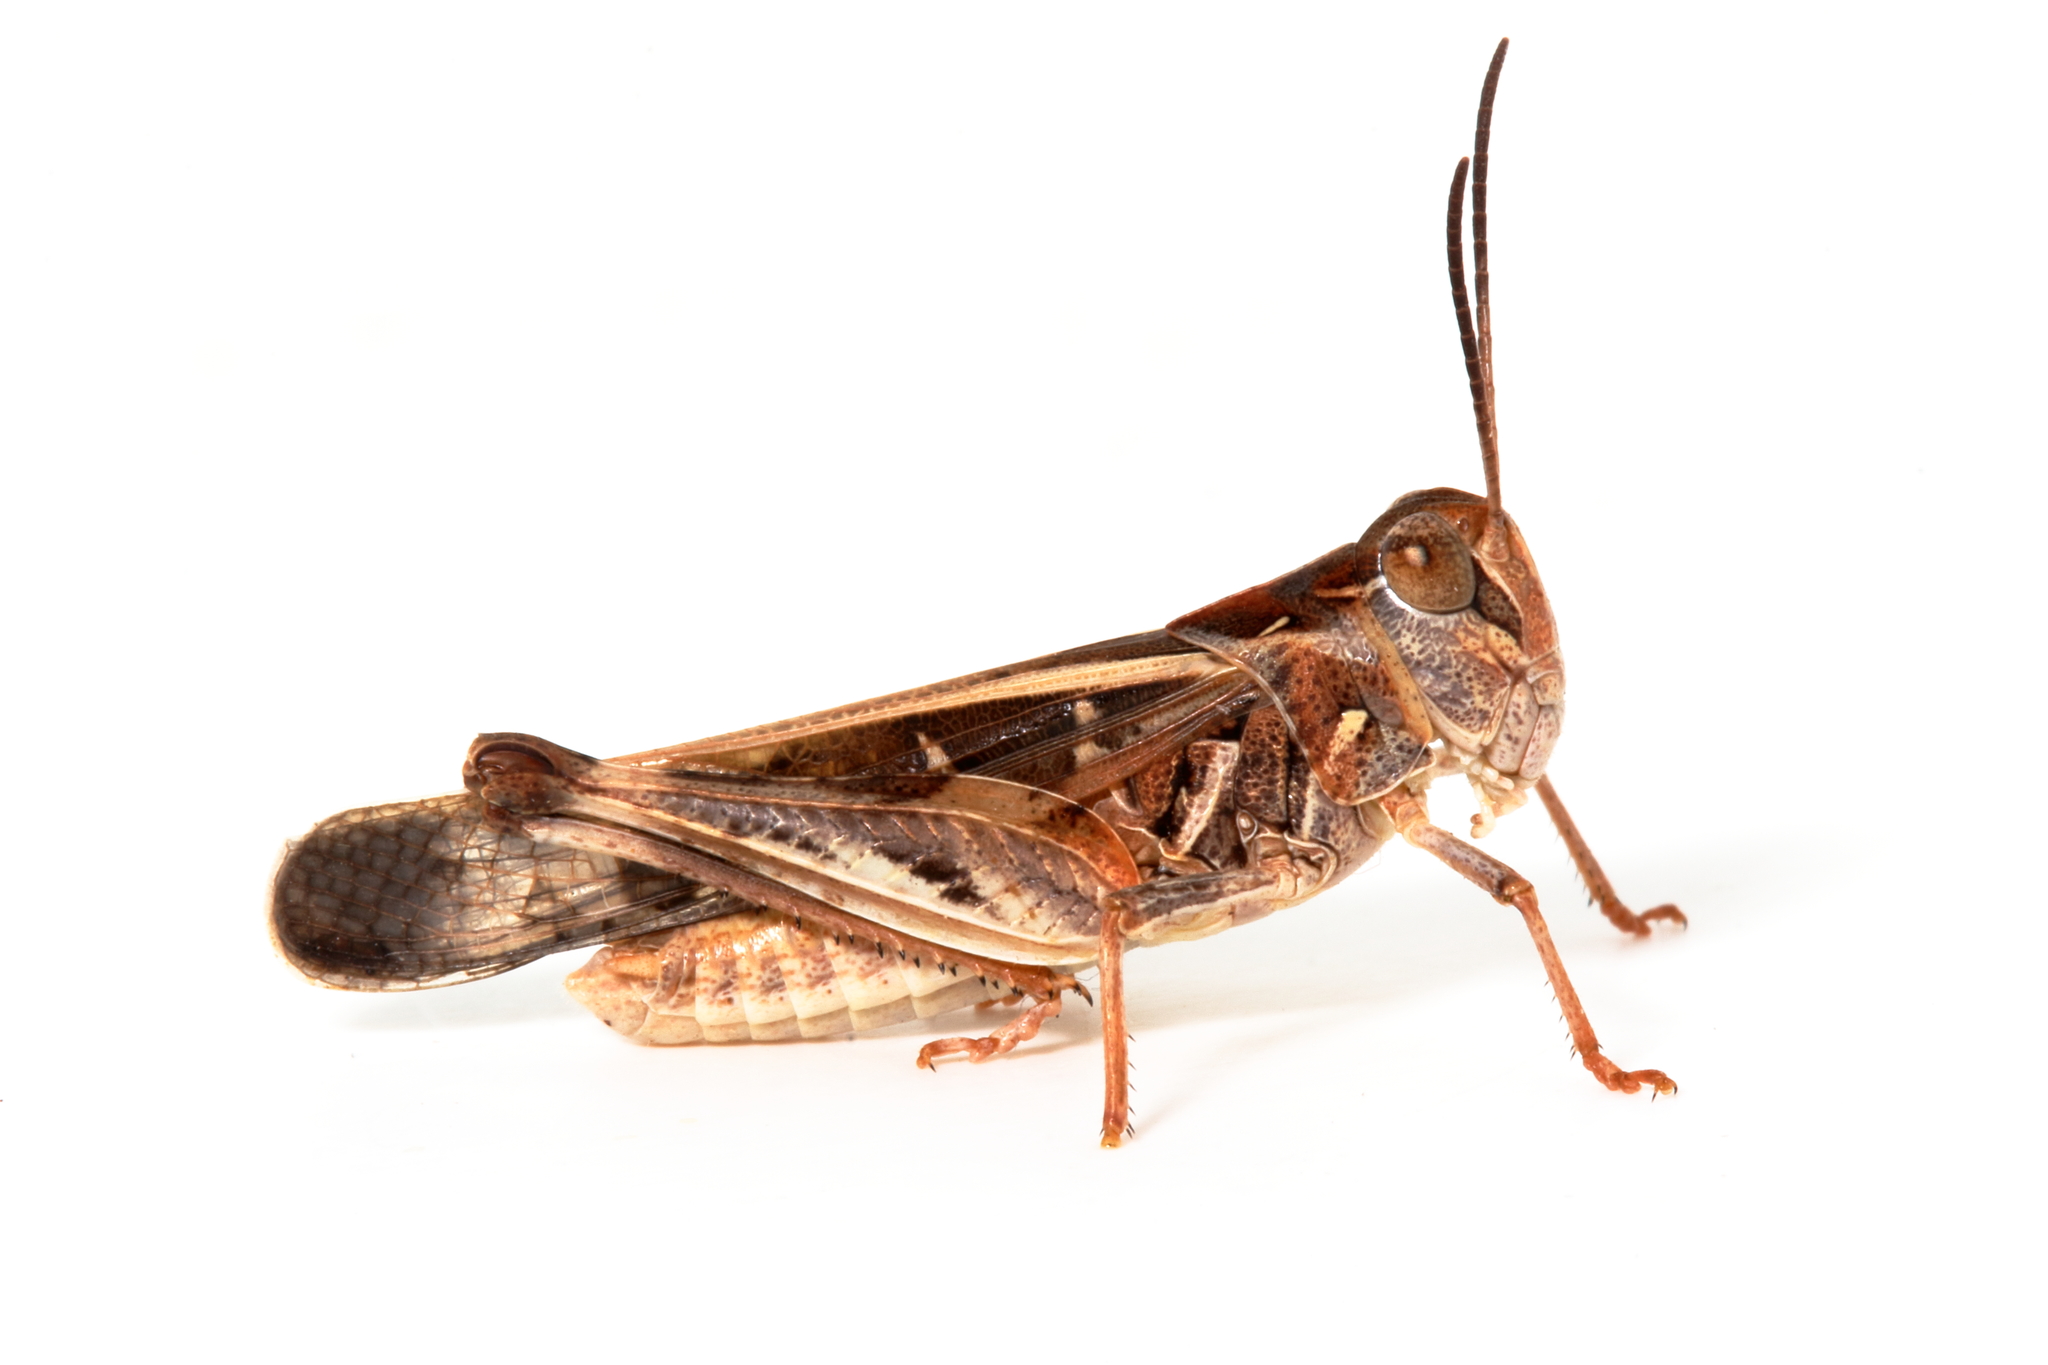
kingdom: Animalia
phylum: Arthropoda
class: Insecta
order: Orthoptera
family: Acrididae
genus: Oedaleus
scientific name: Oedaleus australis
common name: Eastern oedaleus
